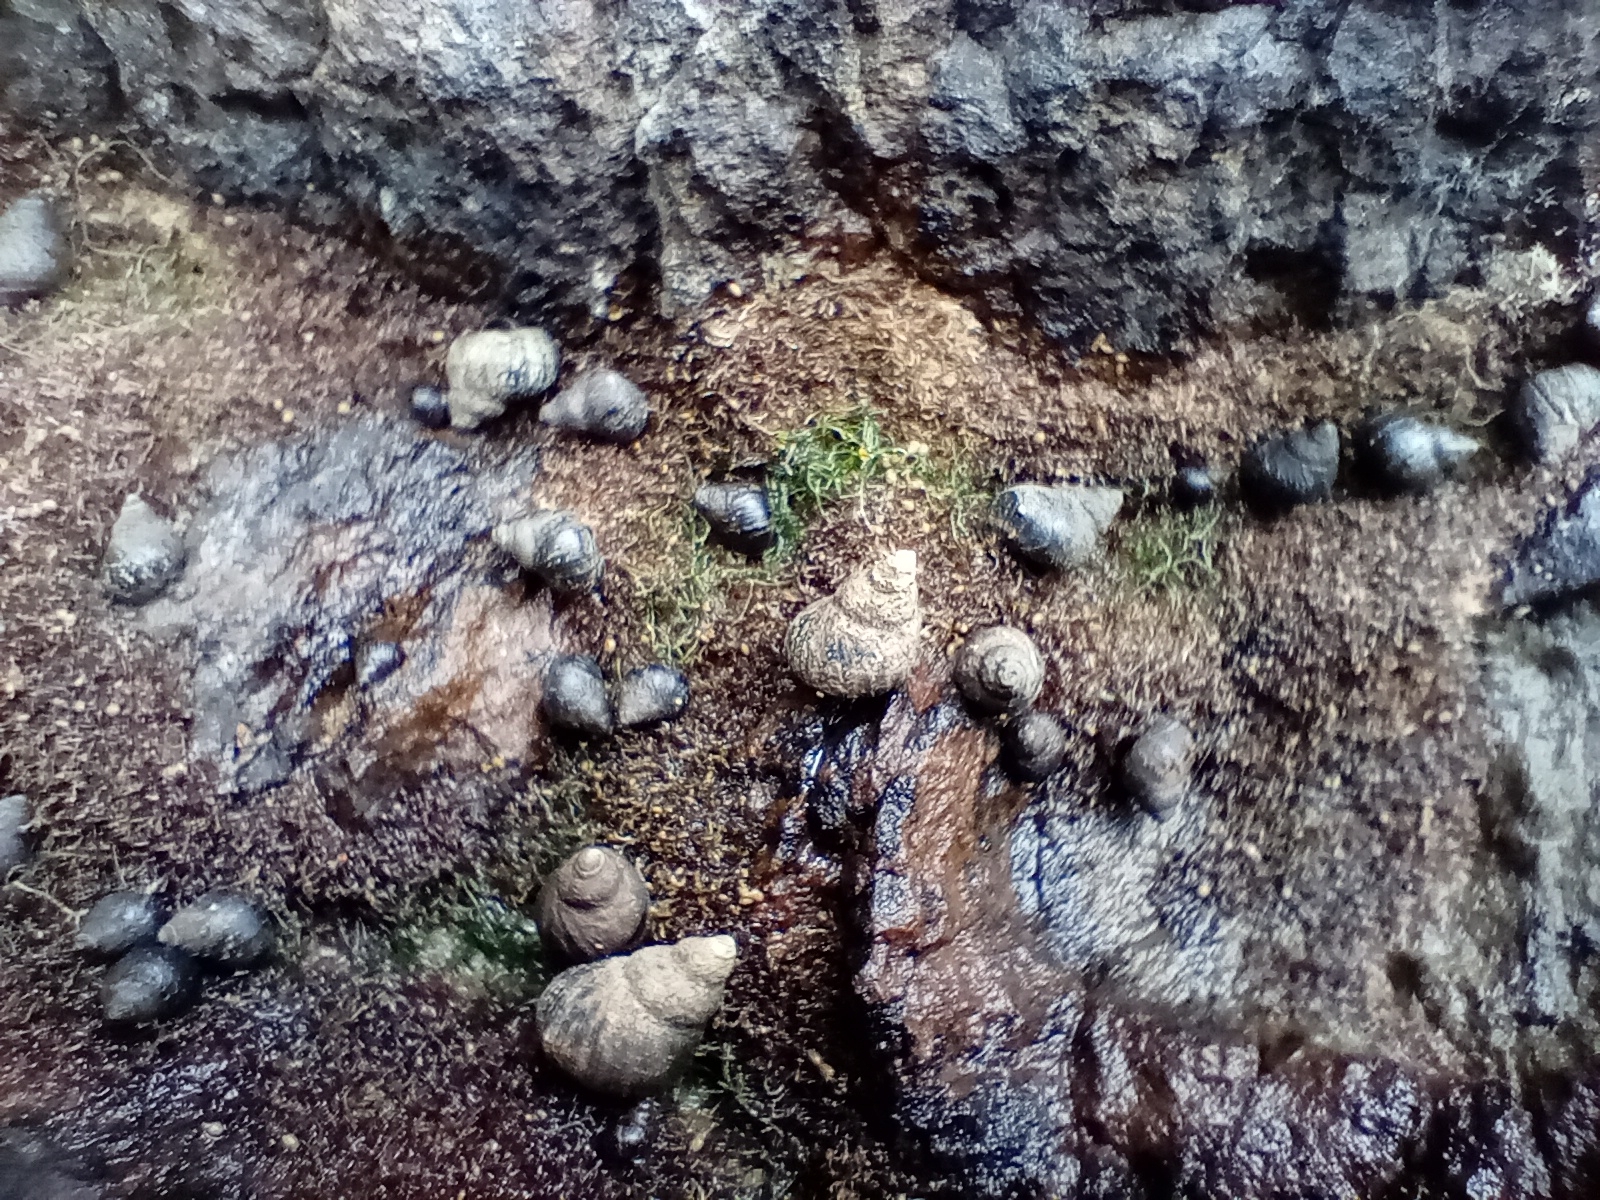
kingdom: Animalia
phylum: Mollusca
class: Gastropoda
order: Littorinimorpha
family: Littorinidae
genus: Austrolittorina
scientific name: Austrolittorina cincta
